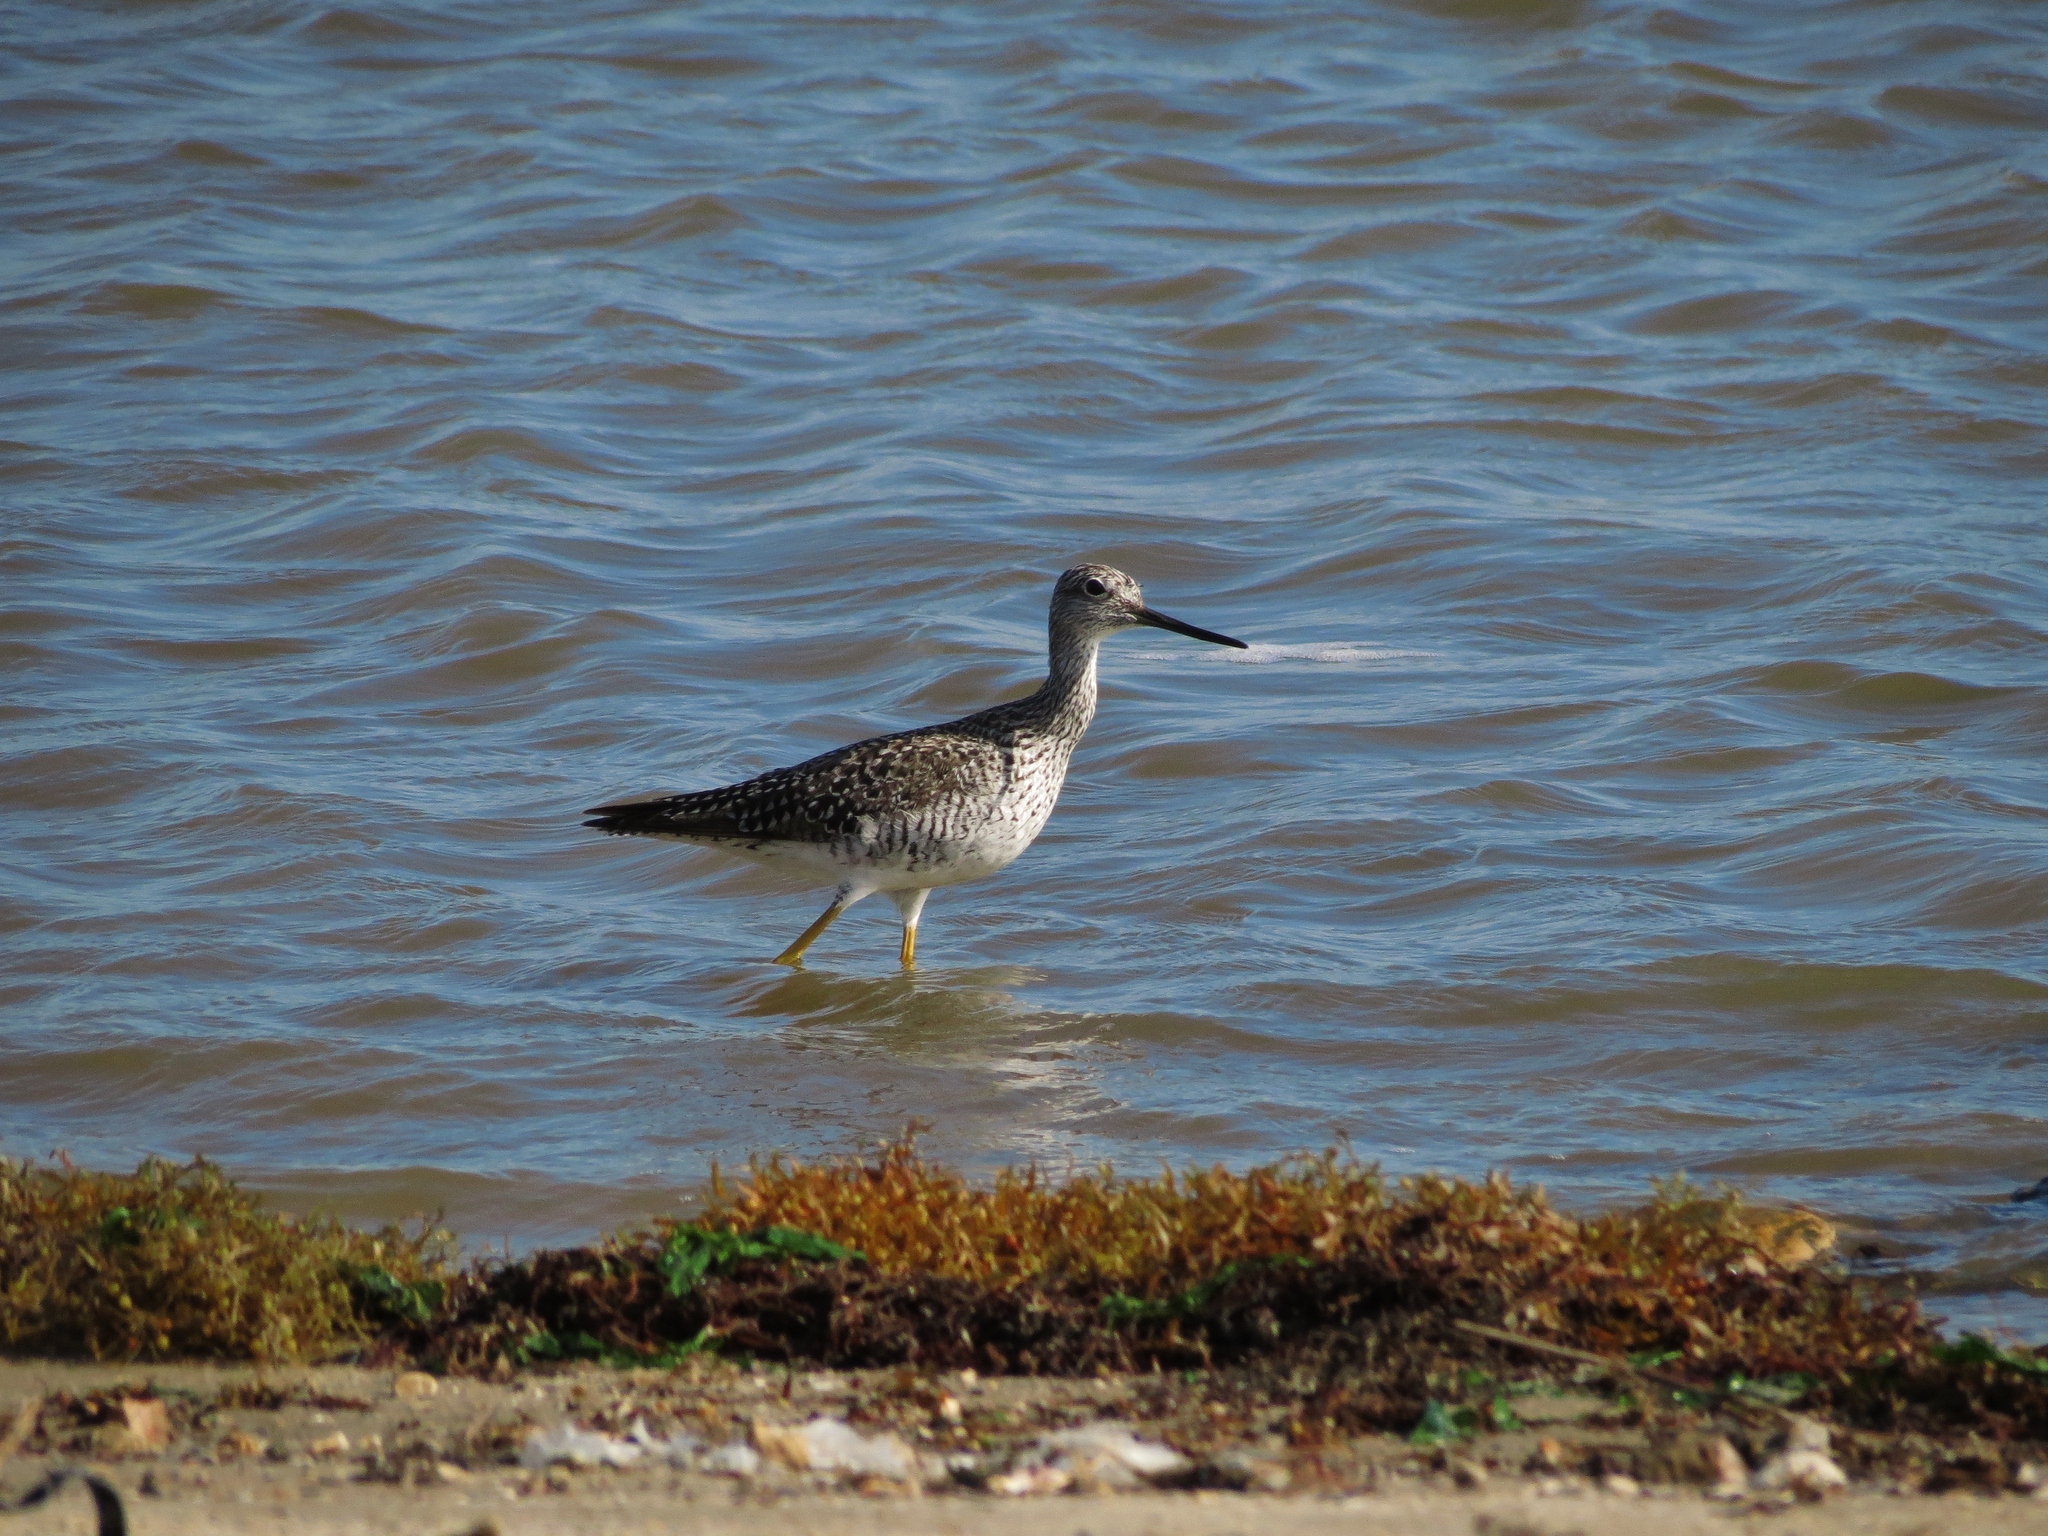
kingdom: Animalia
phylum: Chordata
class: Aves
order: Charadriiformes
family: Scolopacidae
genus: Tringa
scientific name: Tringa melanoleuca
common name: Greater yellowlegs
